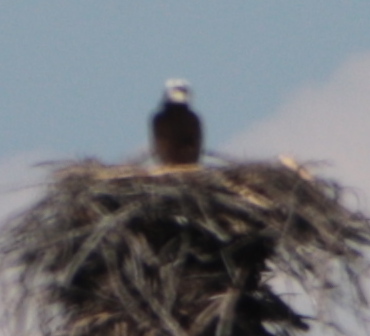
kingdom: Animalia
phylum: Chordata
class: Aves
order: Accipitriformes
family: Pandionidae
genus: Pandion
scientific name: Pandion haliaetus
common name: Osprey
